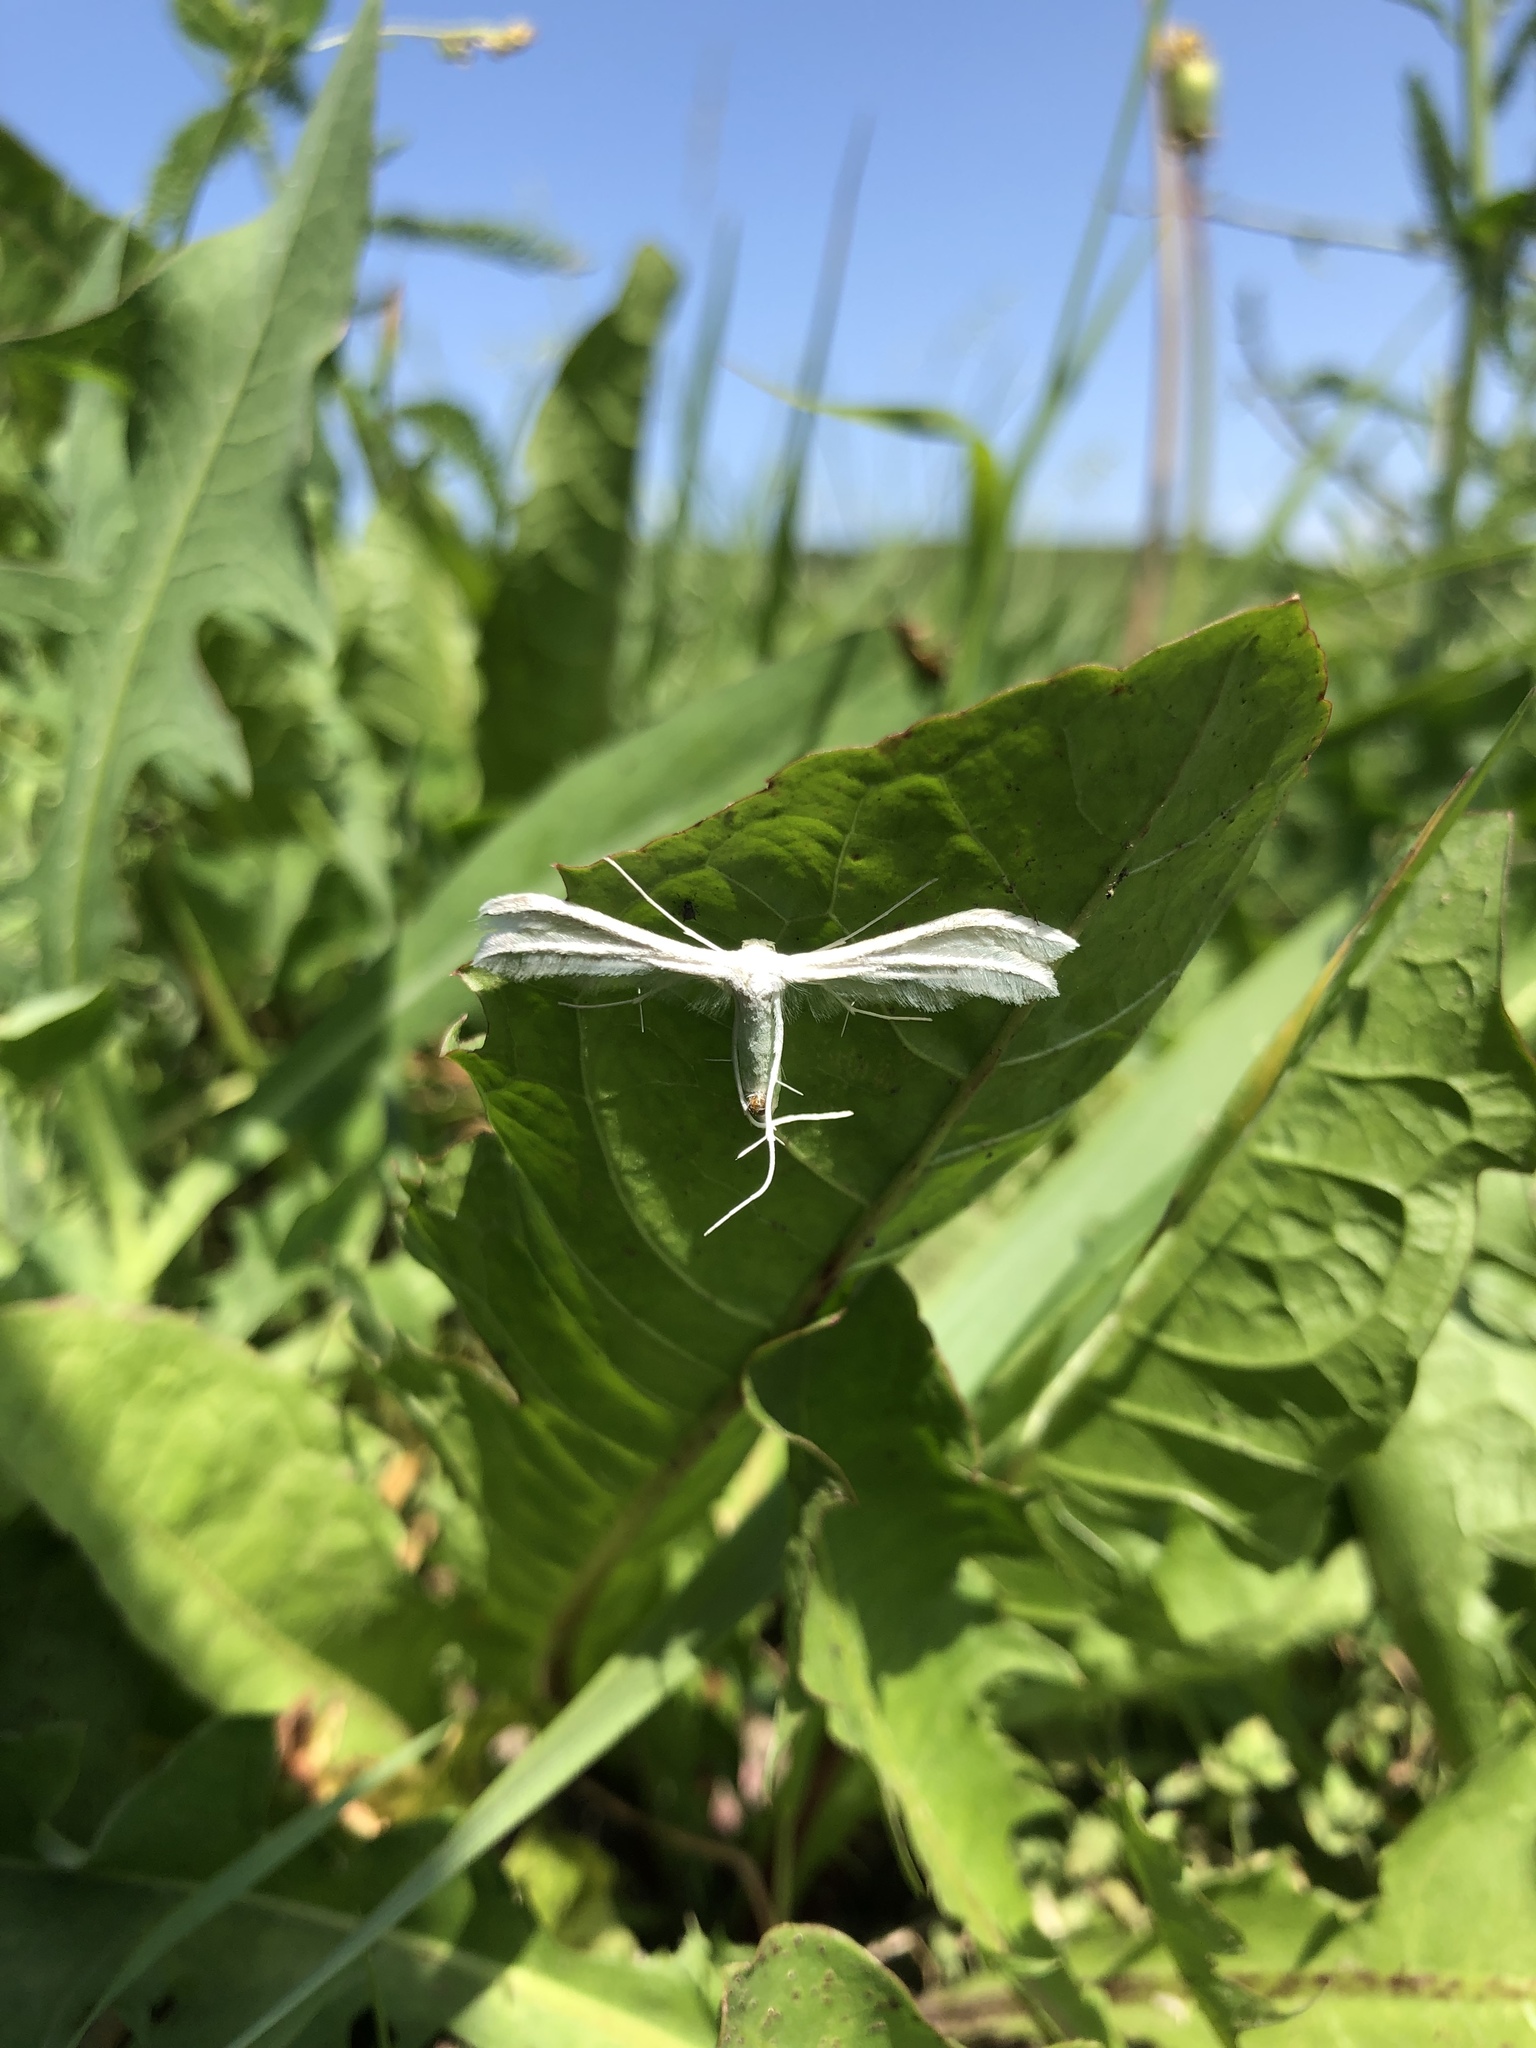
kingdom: Animalia
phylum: Arthropoda
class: Insecta
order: Lepidoptera
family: Pterophoridae
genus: Pterophorus
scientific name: Pterophorus pentadactyla
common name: White plume moth
